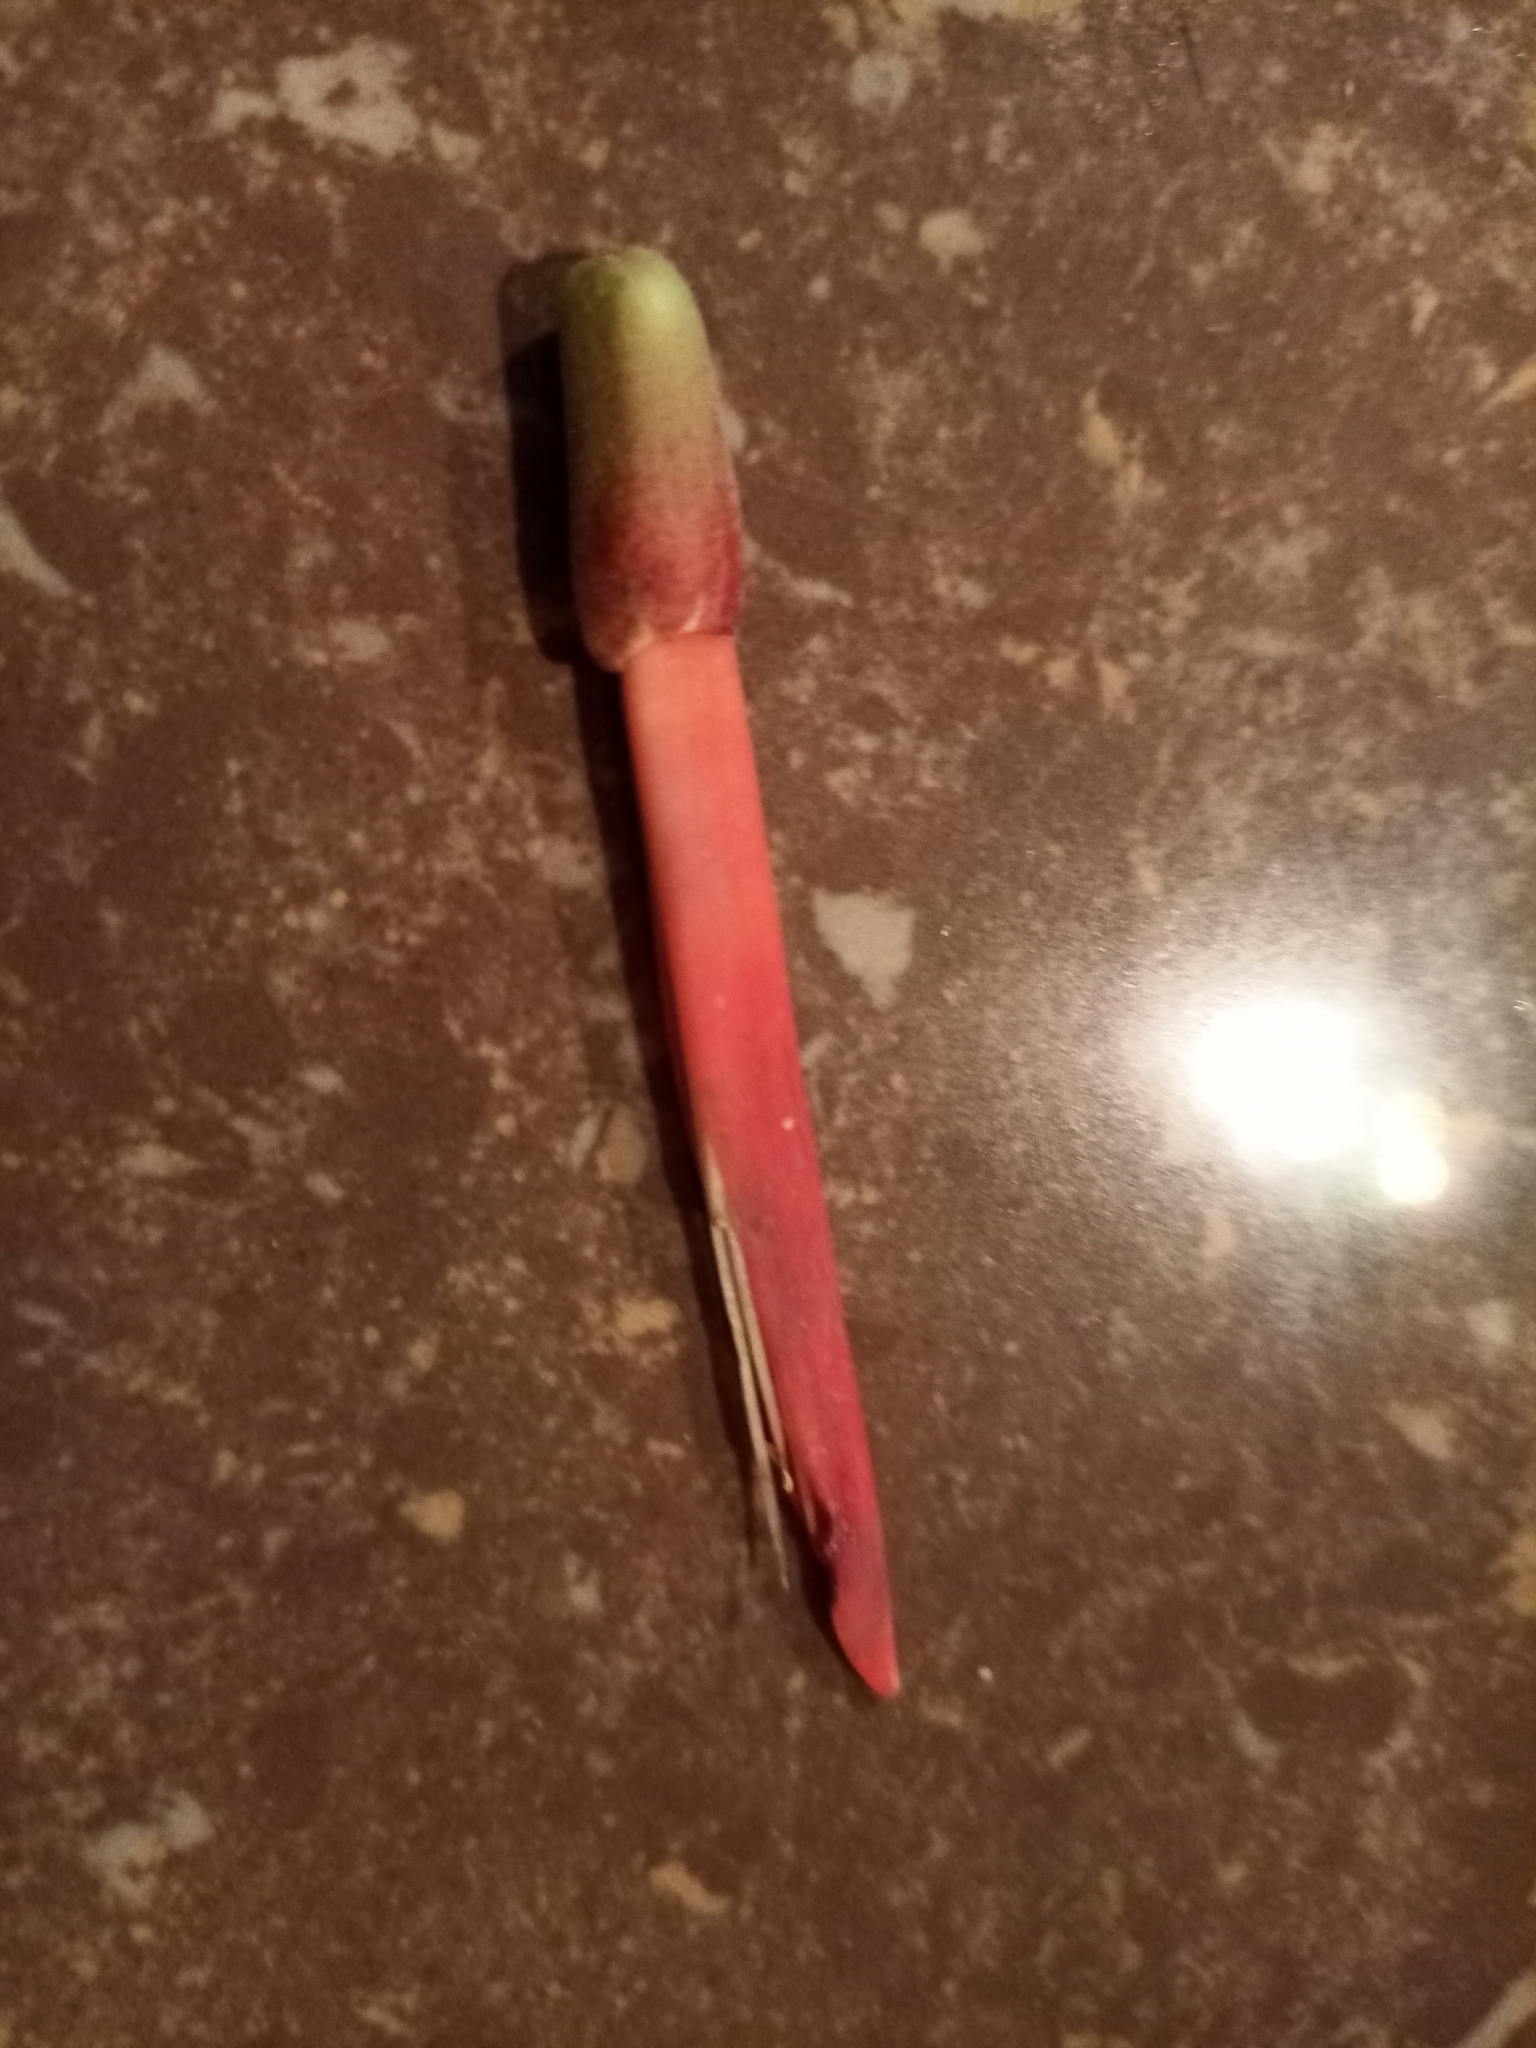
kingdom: Plantae
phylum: Tracheophyta
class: Magnoliopsida
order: Fabales
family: Fabaceae
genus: Erythrina
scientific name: Erythrina americana
